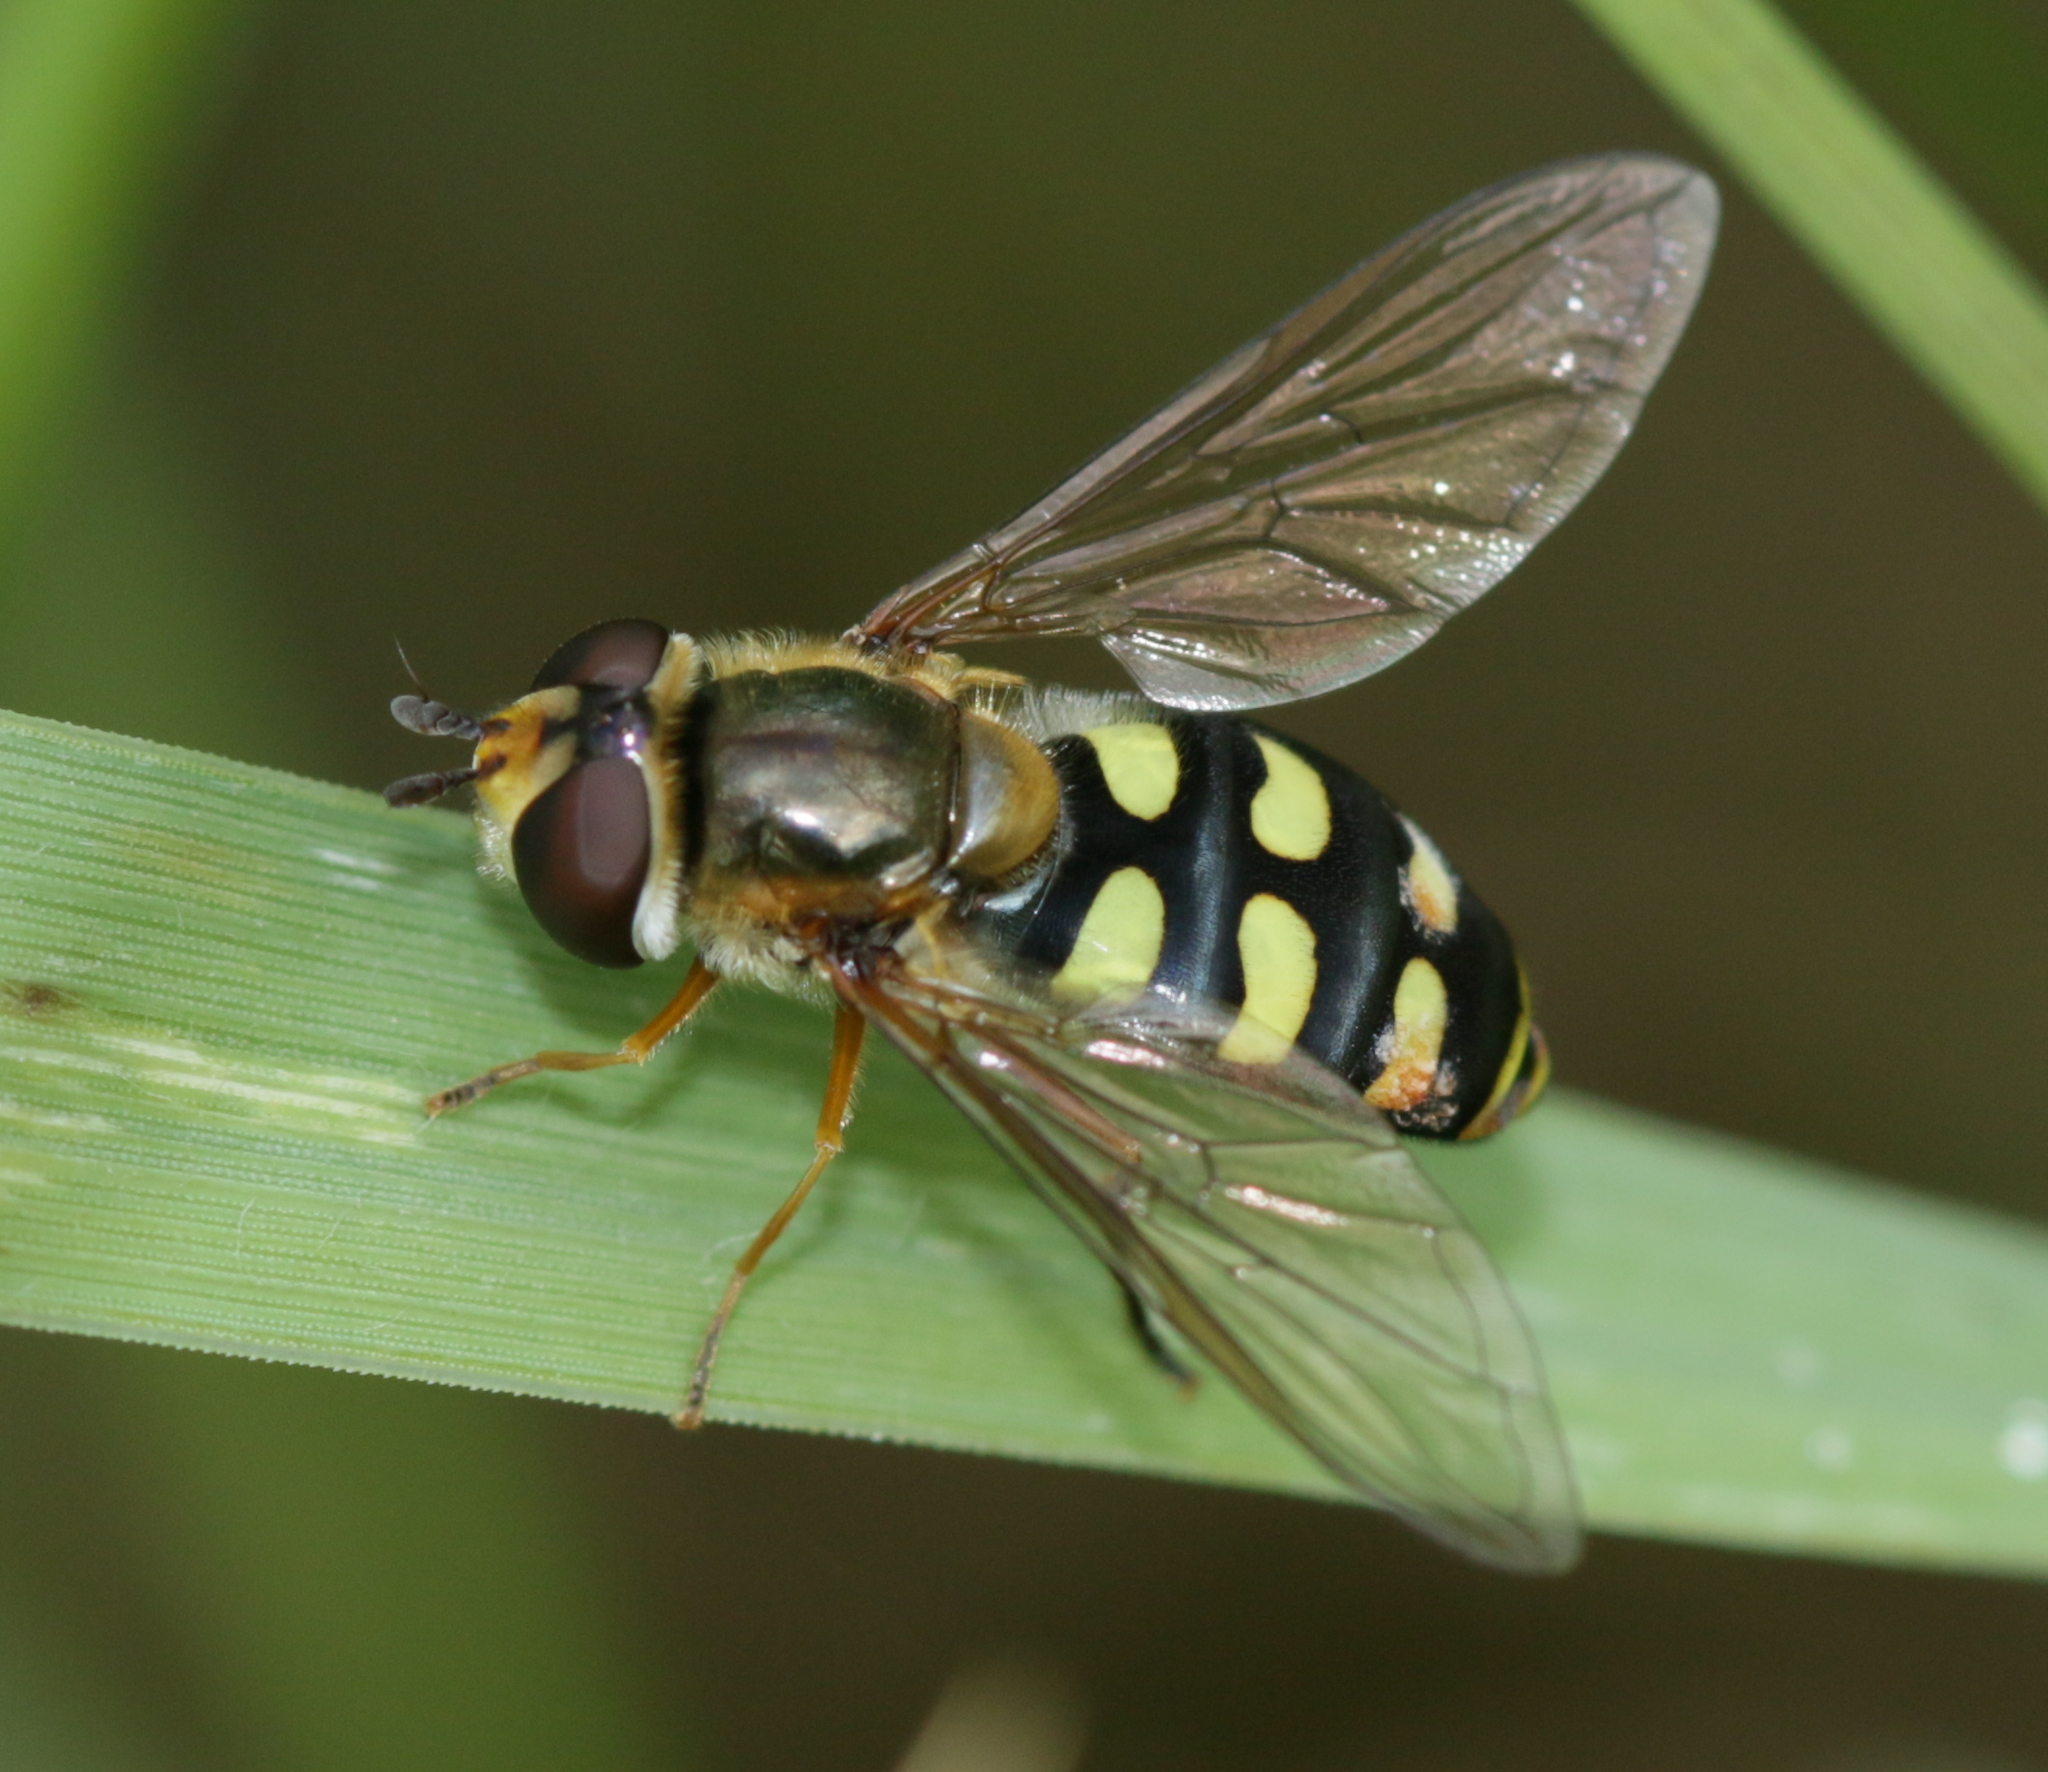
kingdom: Animalia
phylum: Arthropoda
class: Insecta
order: Diptera
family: Syrphidae
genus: Eupeodes
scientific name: Eupeodes luniger
